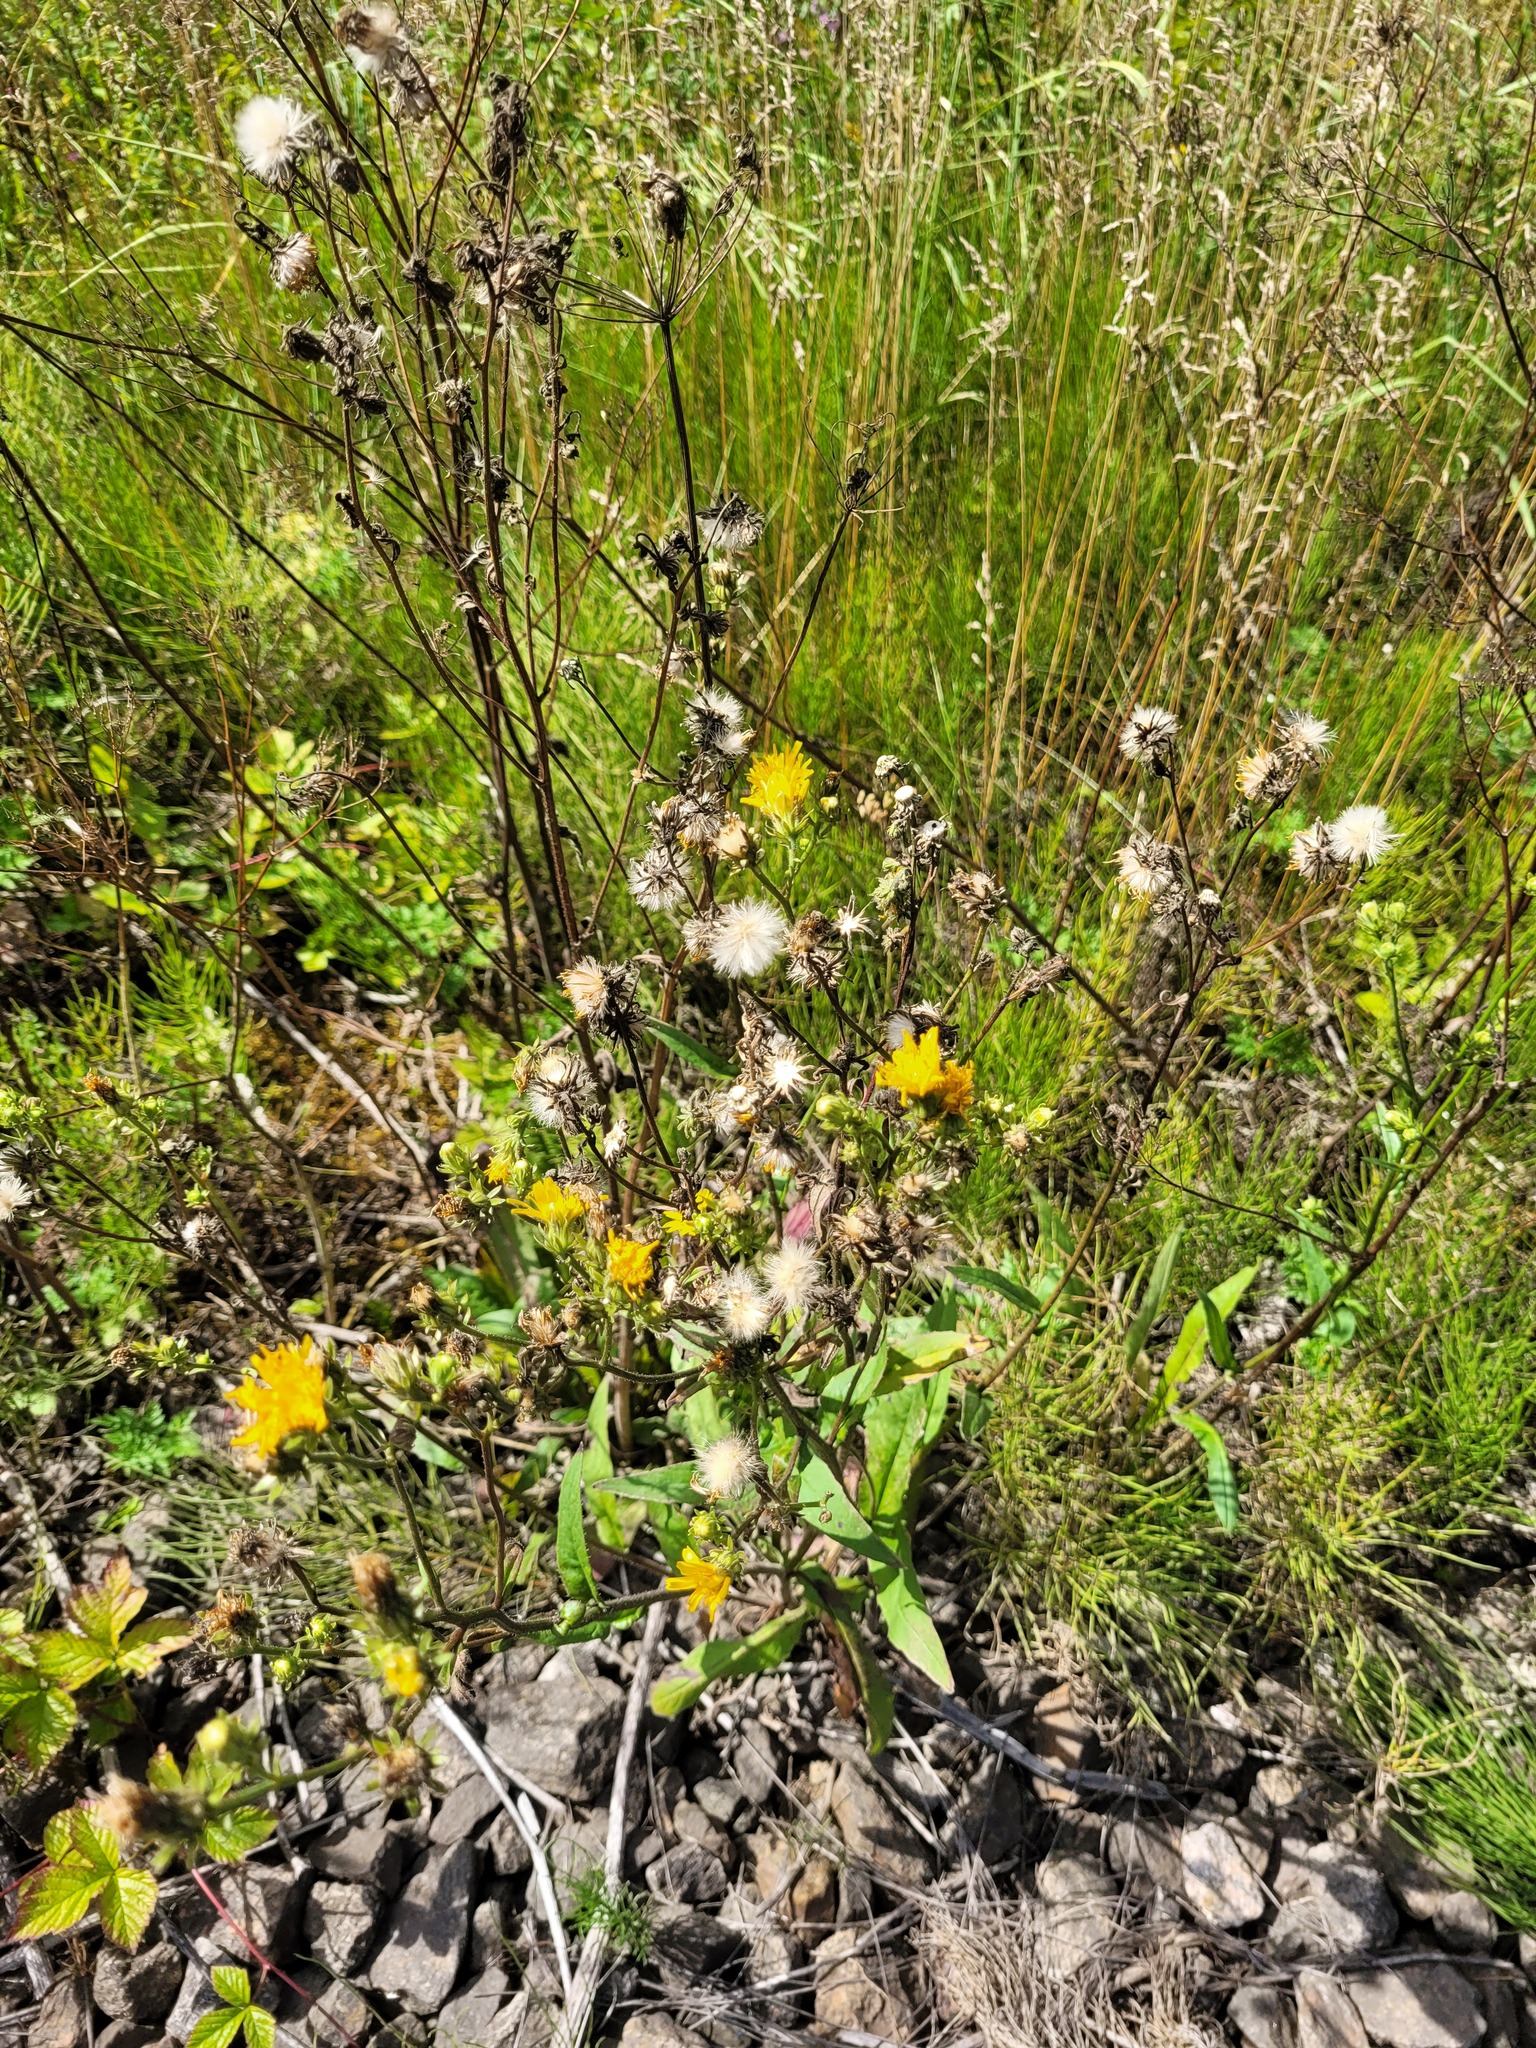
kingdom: Plantae
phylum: Tracheophyta
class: Magnoliopsida
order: Asterales
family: Asteraceae
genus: Picris
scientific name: Picris hieracioides
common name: Hawkweed oxtongue
